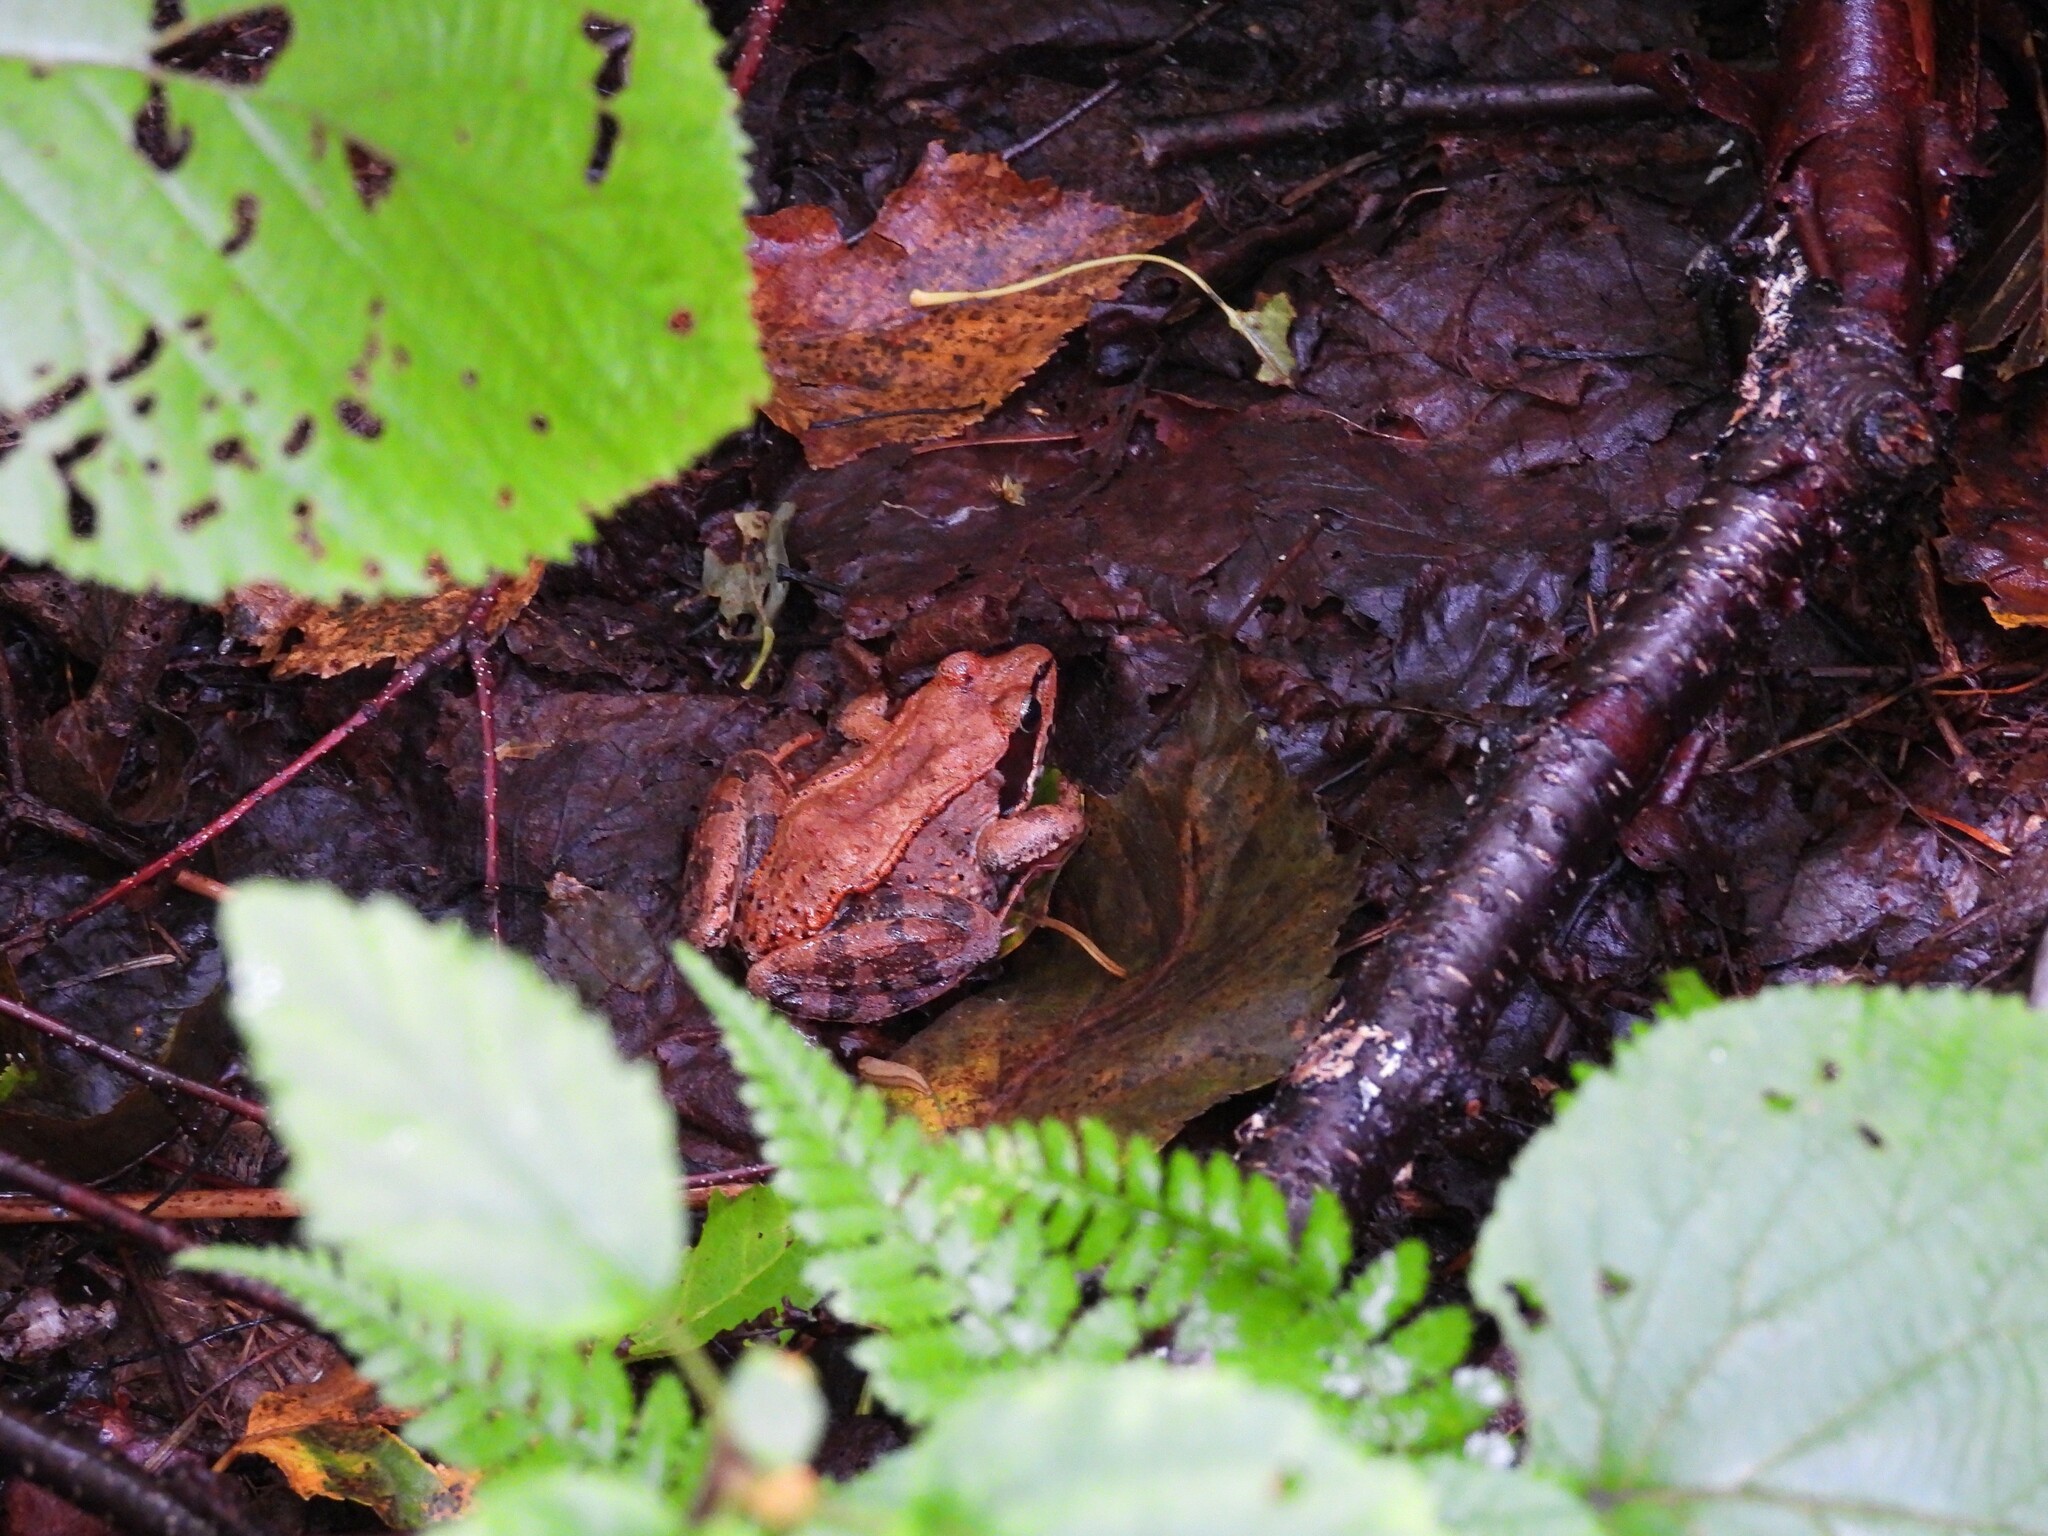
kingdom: Animalia
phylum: Chordata
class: Amphibia
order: Anura
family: Ranidae
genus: Lithobates
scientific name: Lithobates sylvaticus
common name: Wood frog
